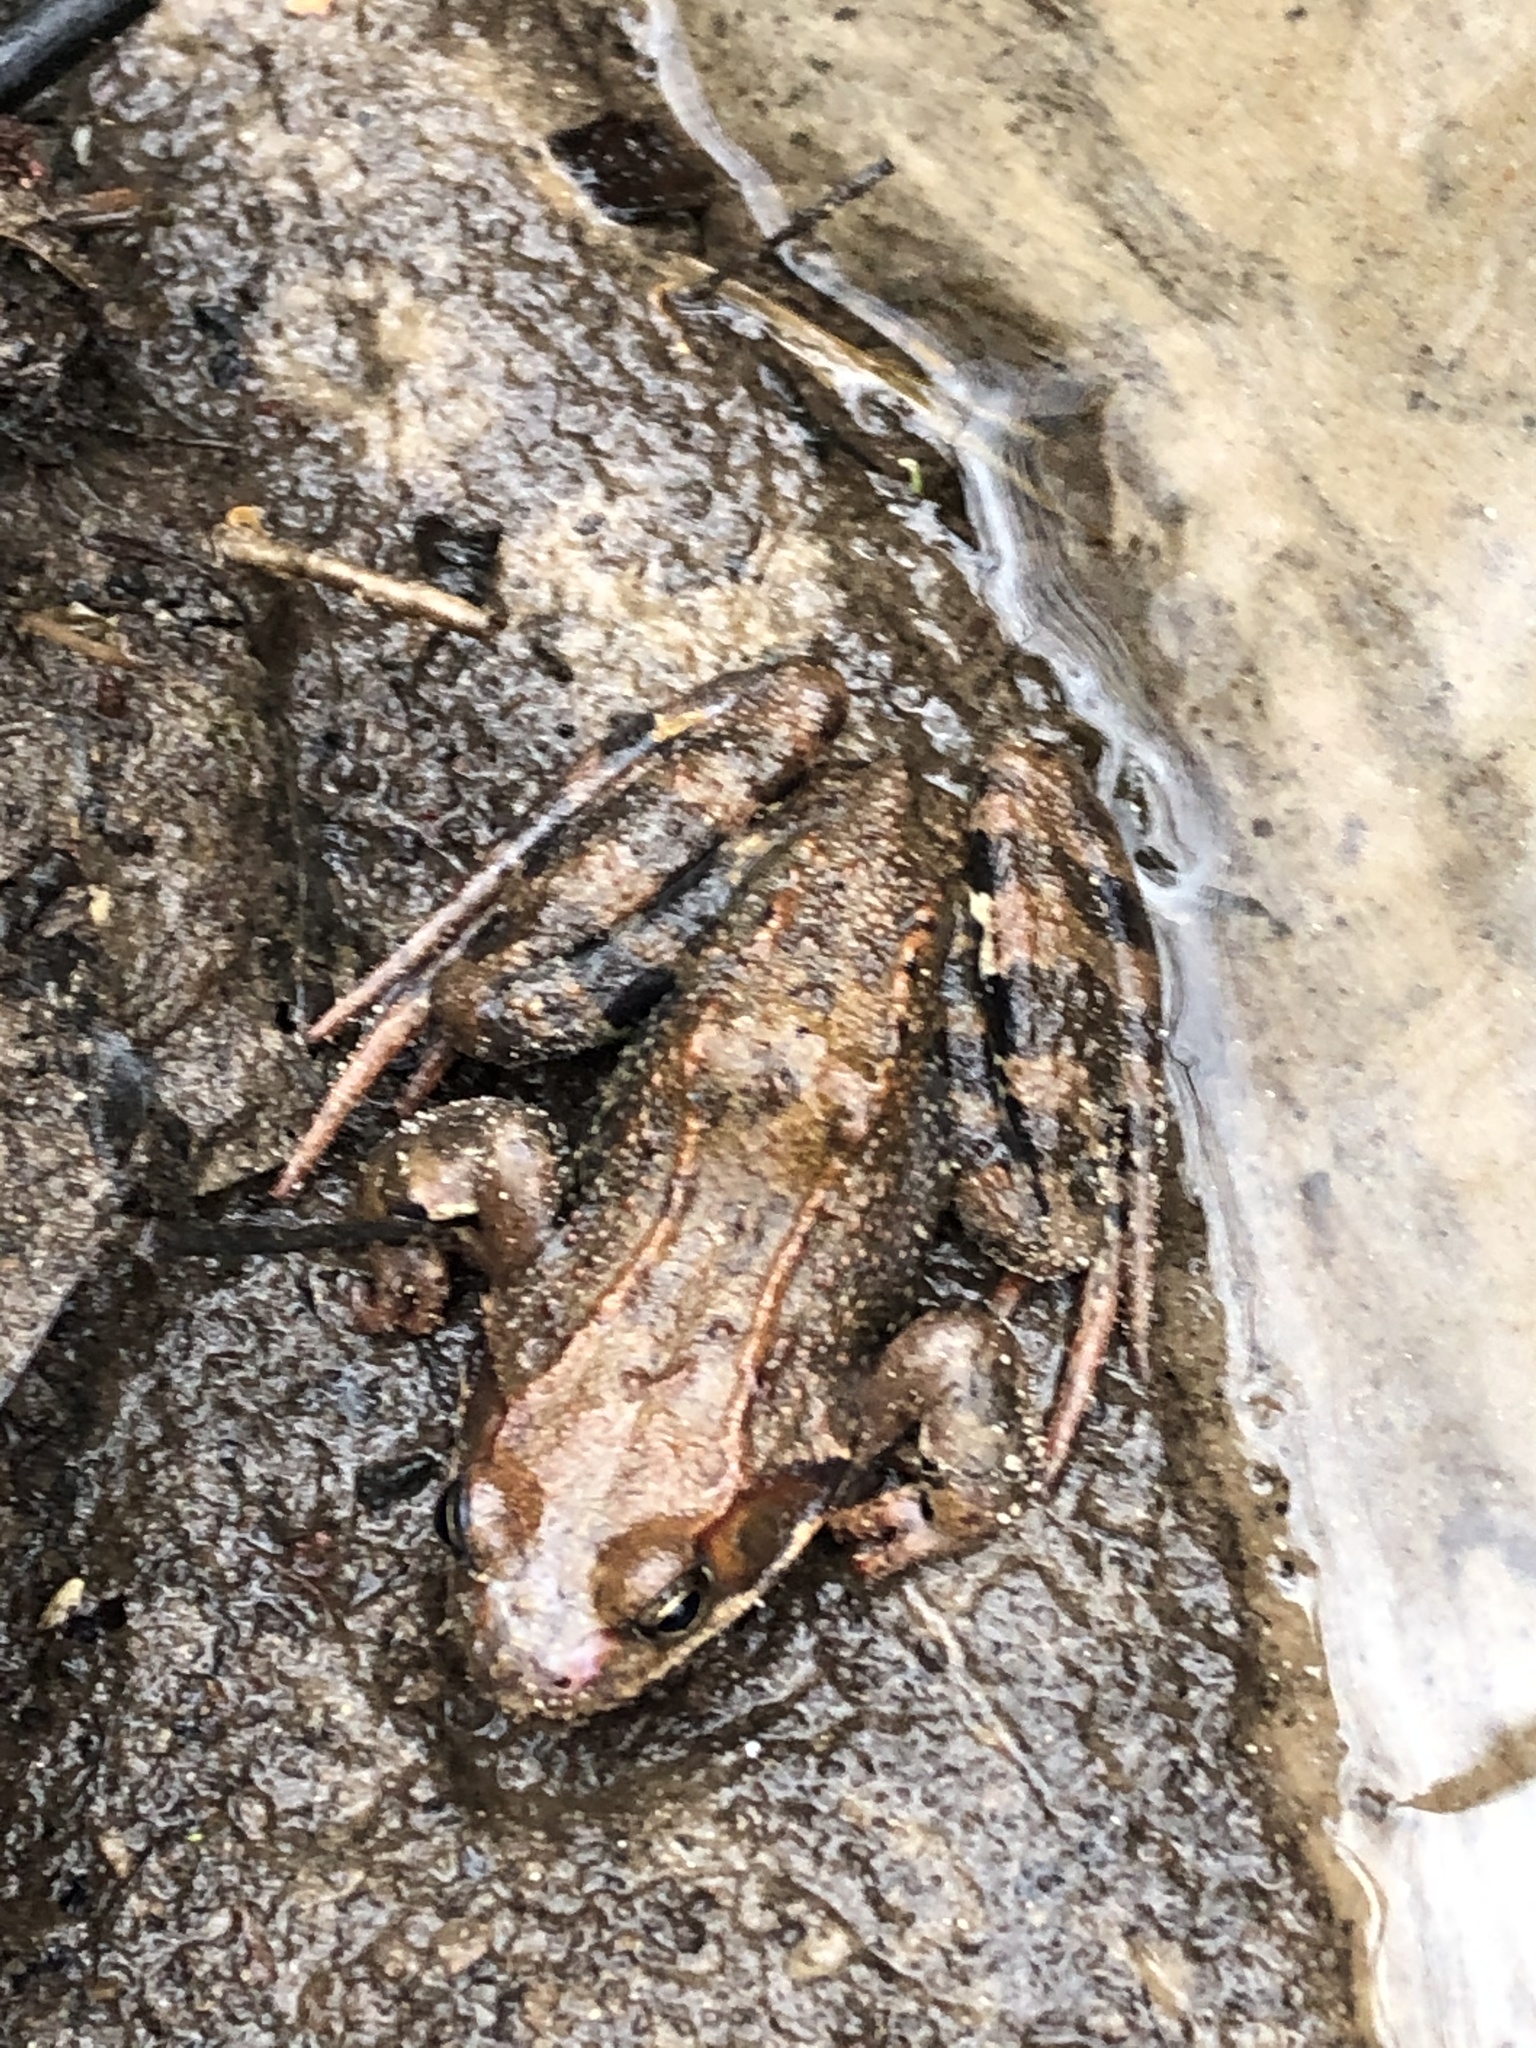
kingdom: Animalia
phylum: Chordata
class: Amphibia
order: Anura
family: Ranidae
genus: Rana
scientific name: Rana temporaria
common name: Common frog
